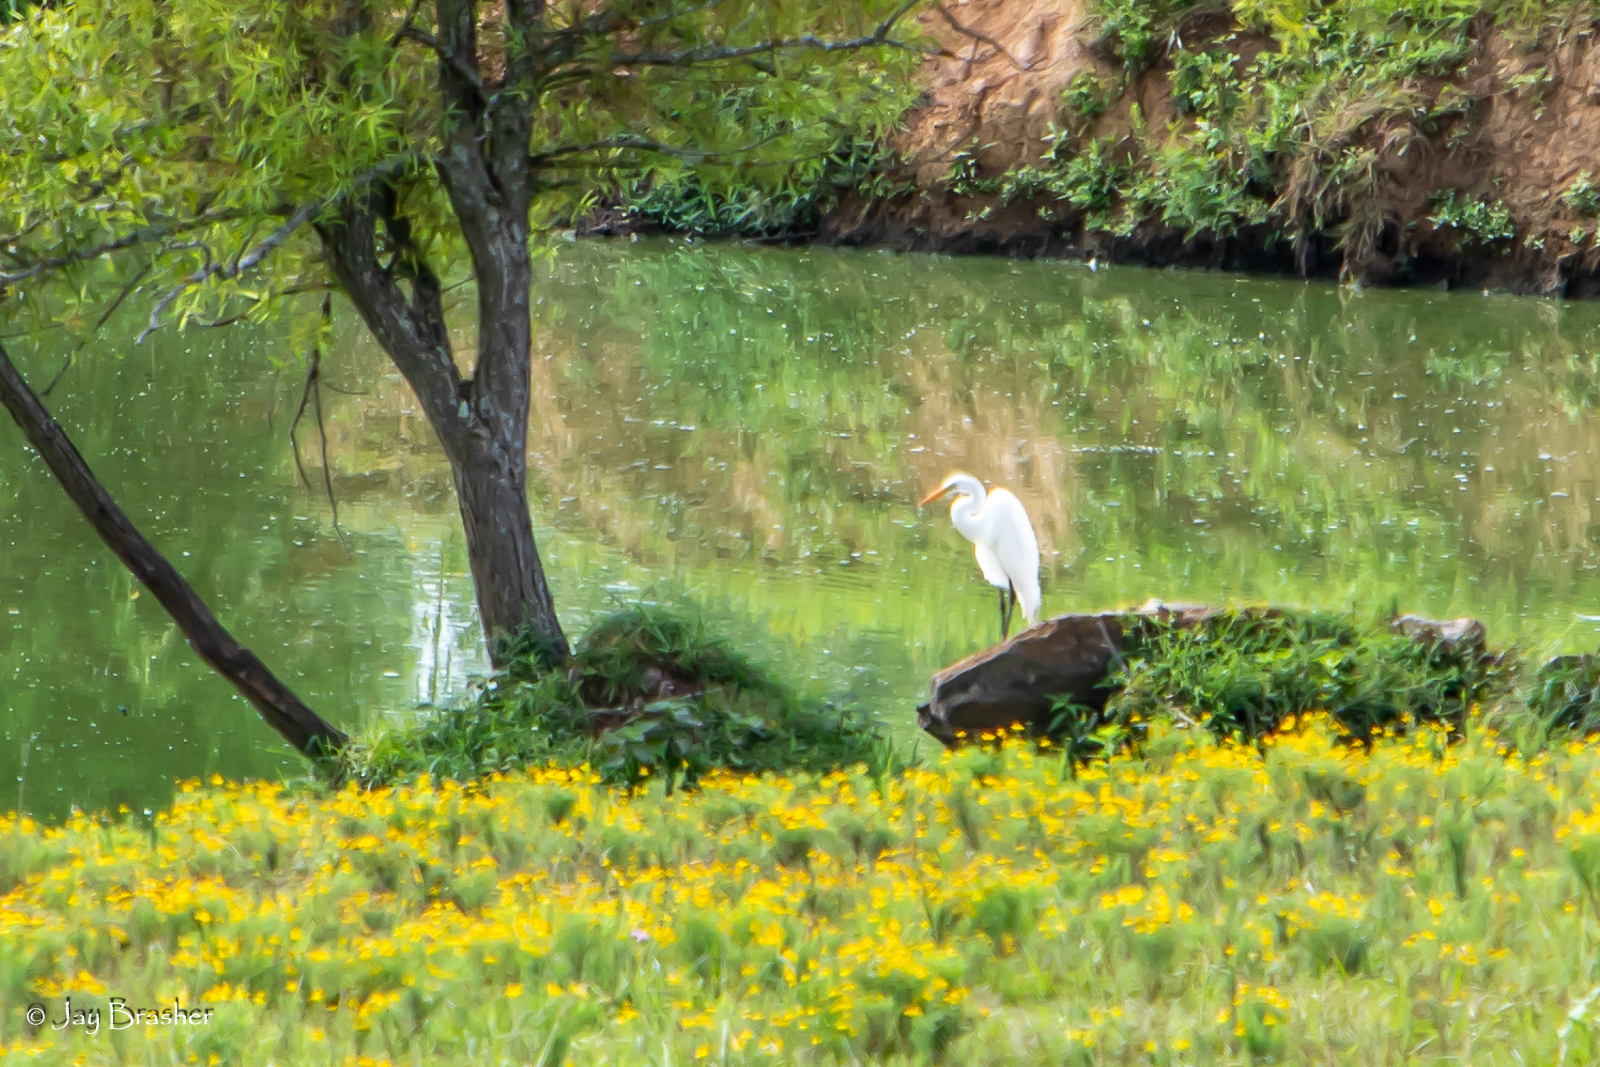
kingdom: Animalia
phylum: Chordata
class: Aves
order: Pelecaniformes
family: Ardeidae
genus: Ardea
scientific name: Ardea alba
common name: Great egret
